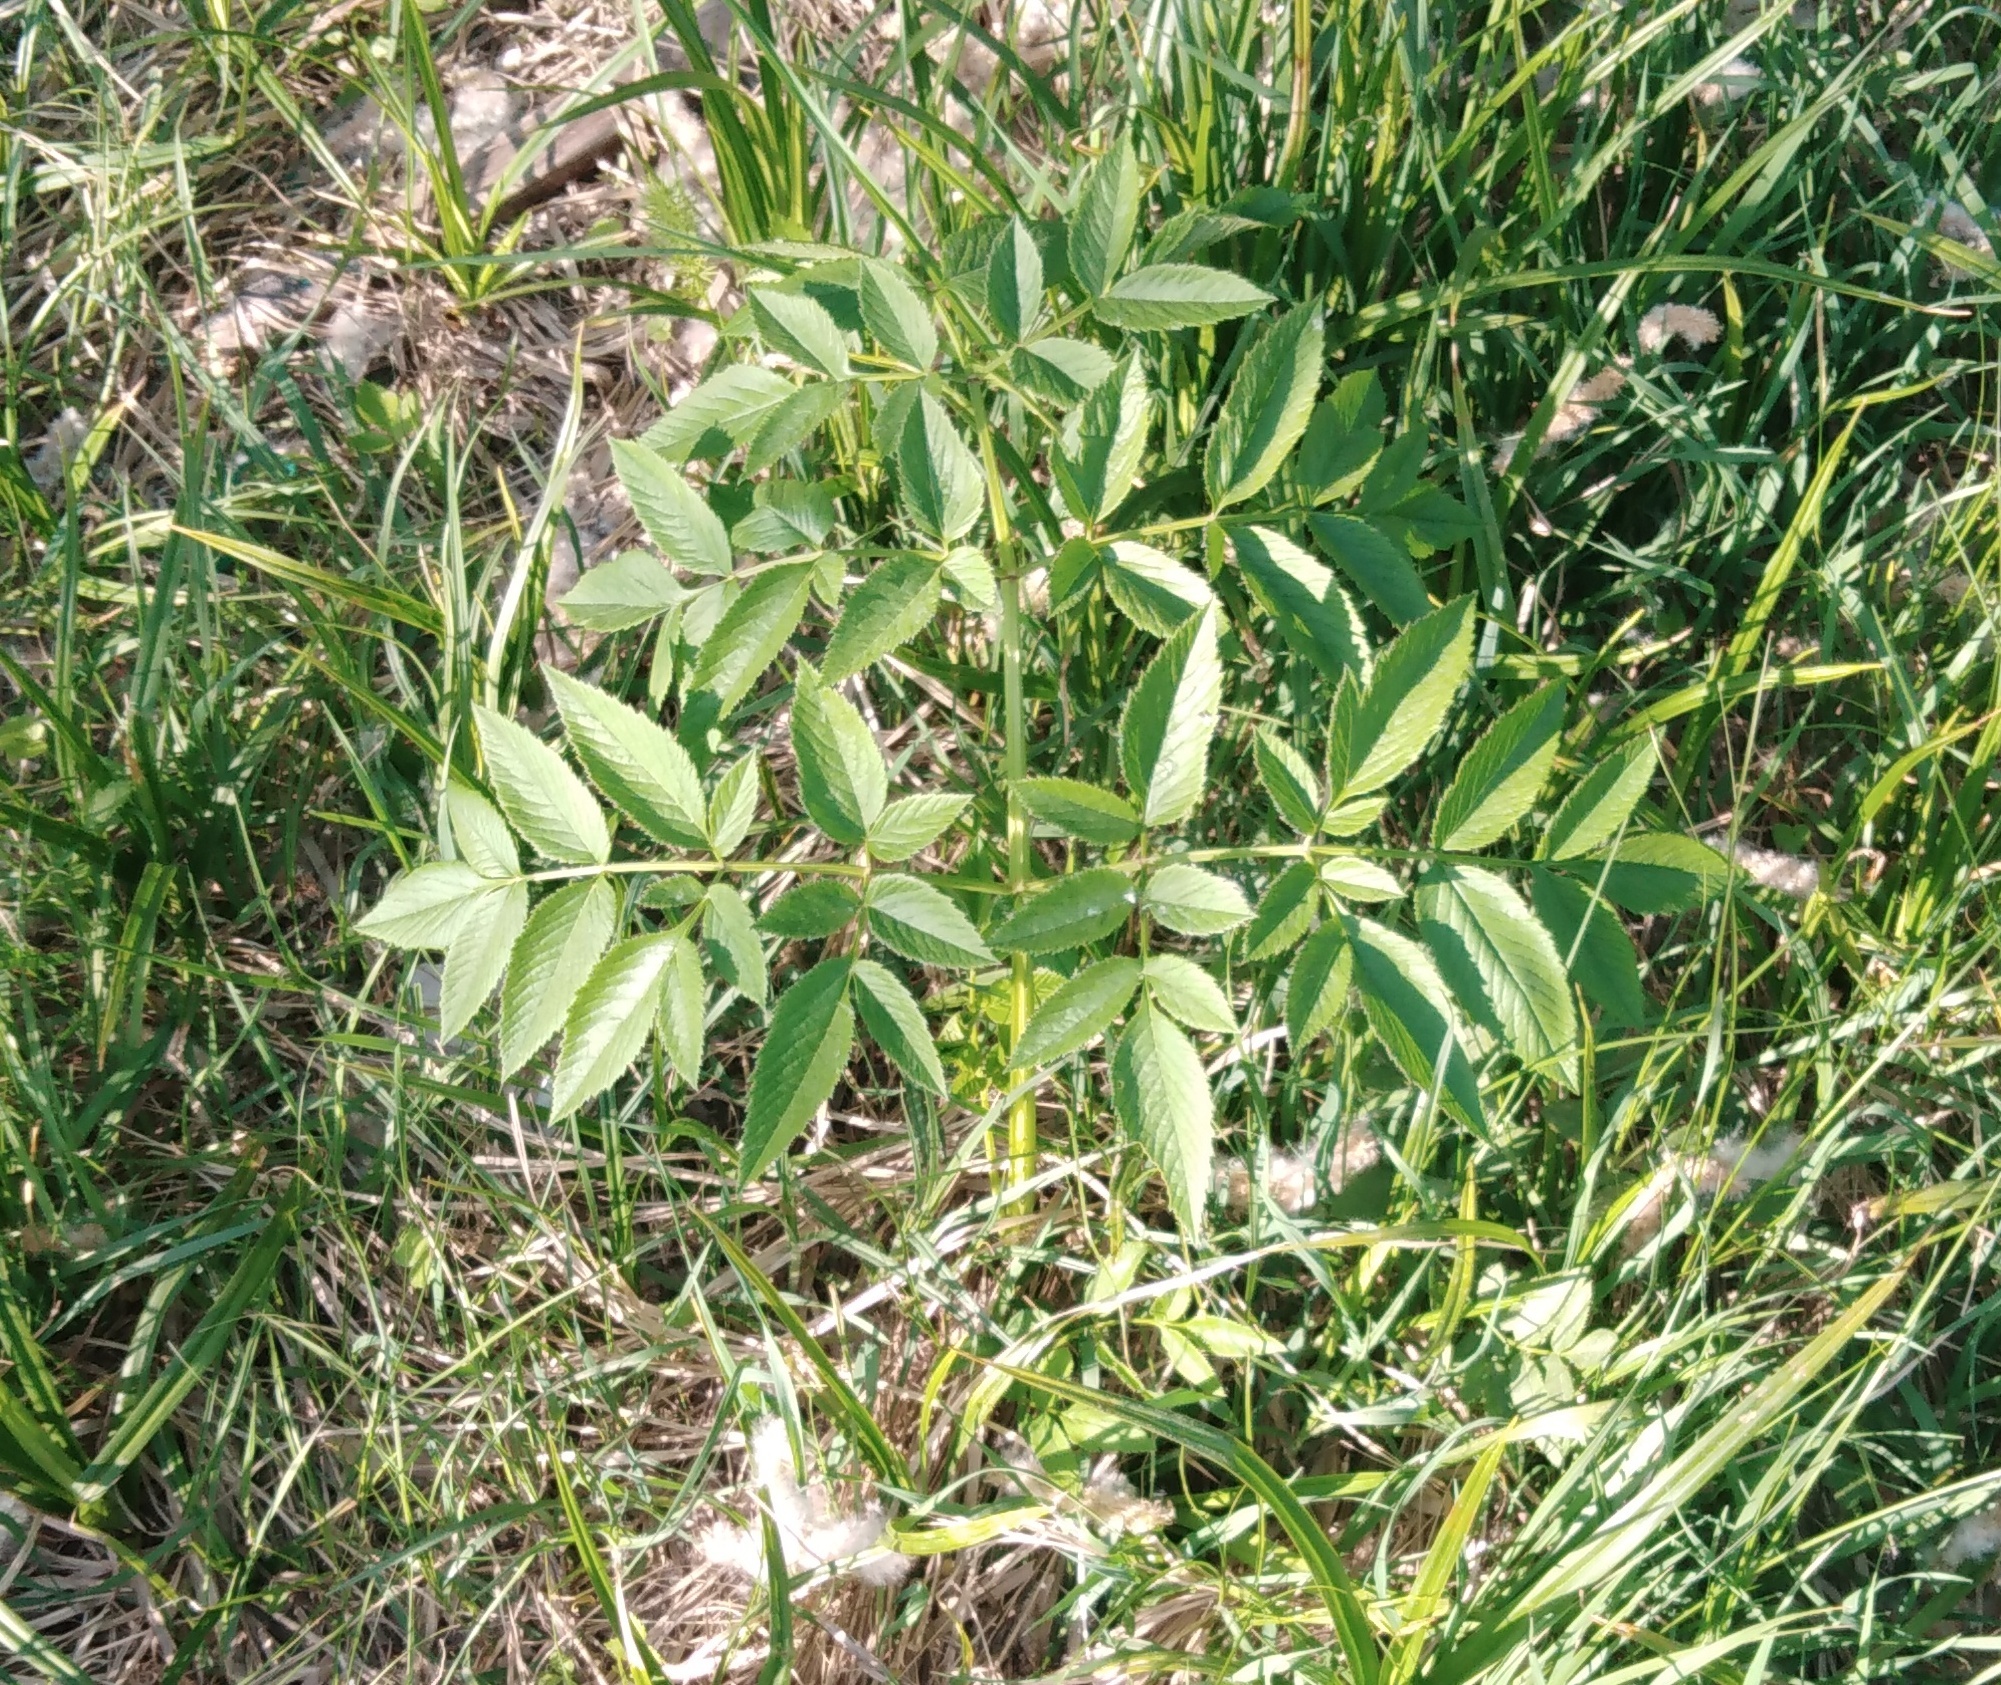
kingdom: Plantae
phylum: Tracheophyta
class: Magnoliopsida
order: Apiales
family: Apiaceae
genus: Angelica
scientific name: Angelica sylvestris
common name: Wild angelica
